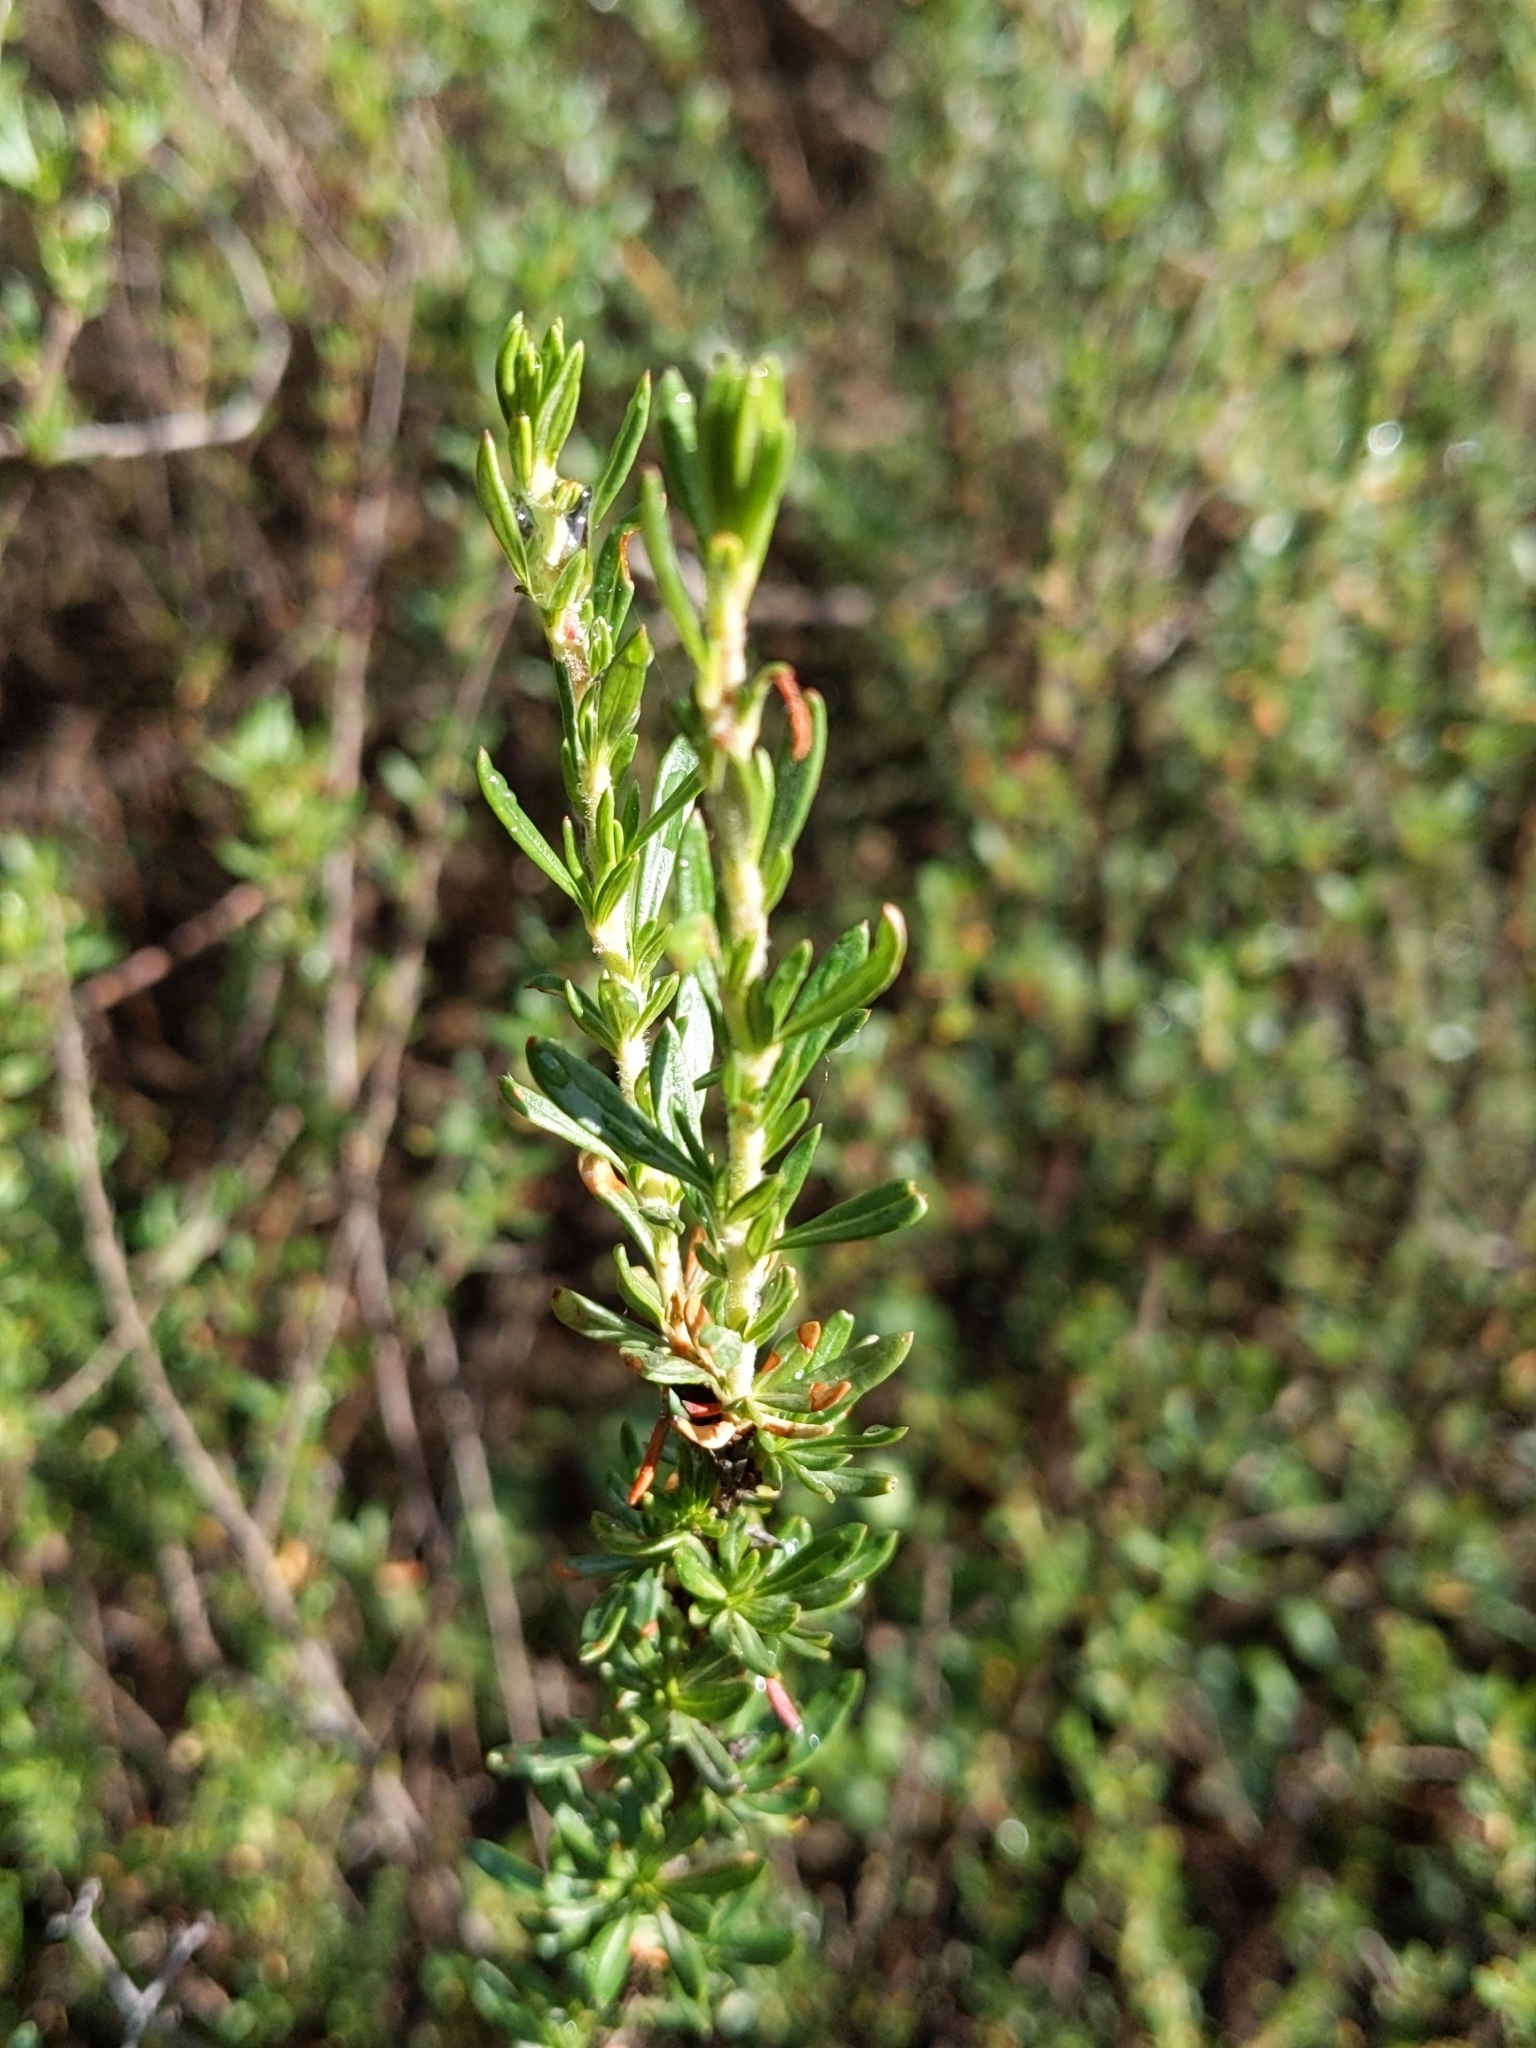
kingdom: Plantae
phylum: Tracheophyta
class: Magnoliopsida
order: Caryophyllales
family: Polygonaceae
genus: Eriogonum
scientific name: Eriogonum fasciculatum
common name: California wild buckwheat
